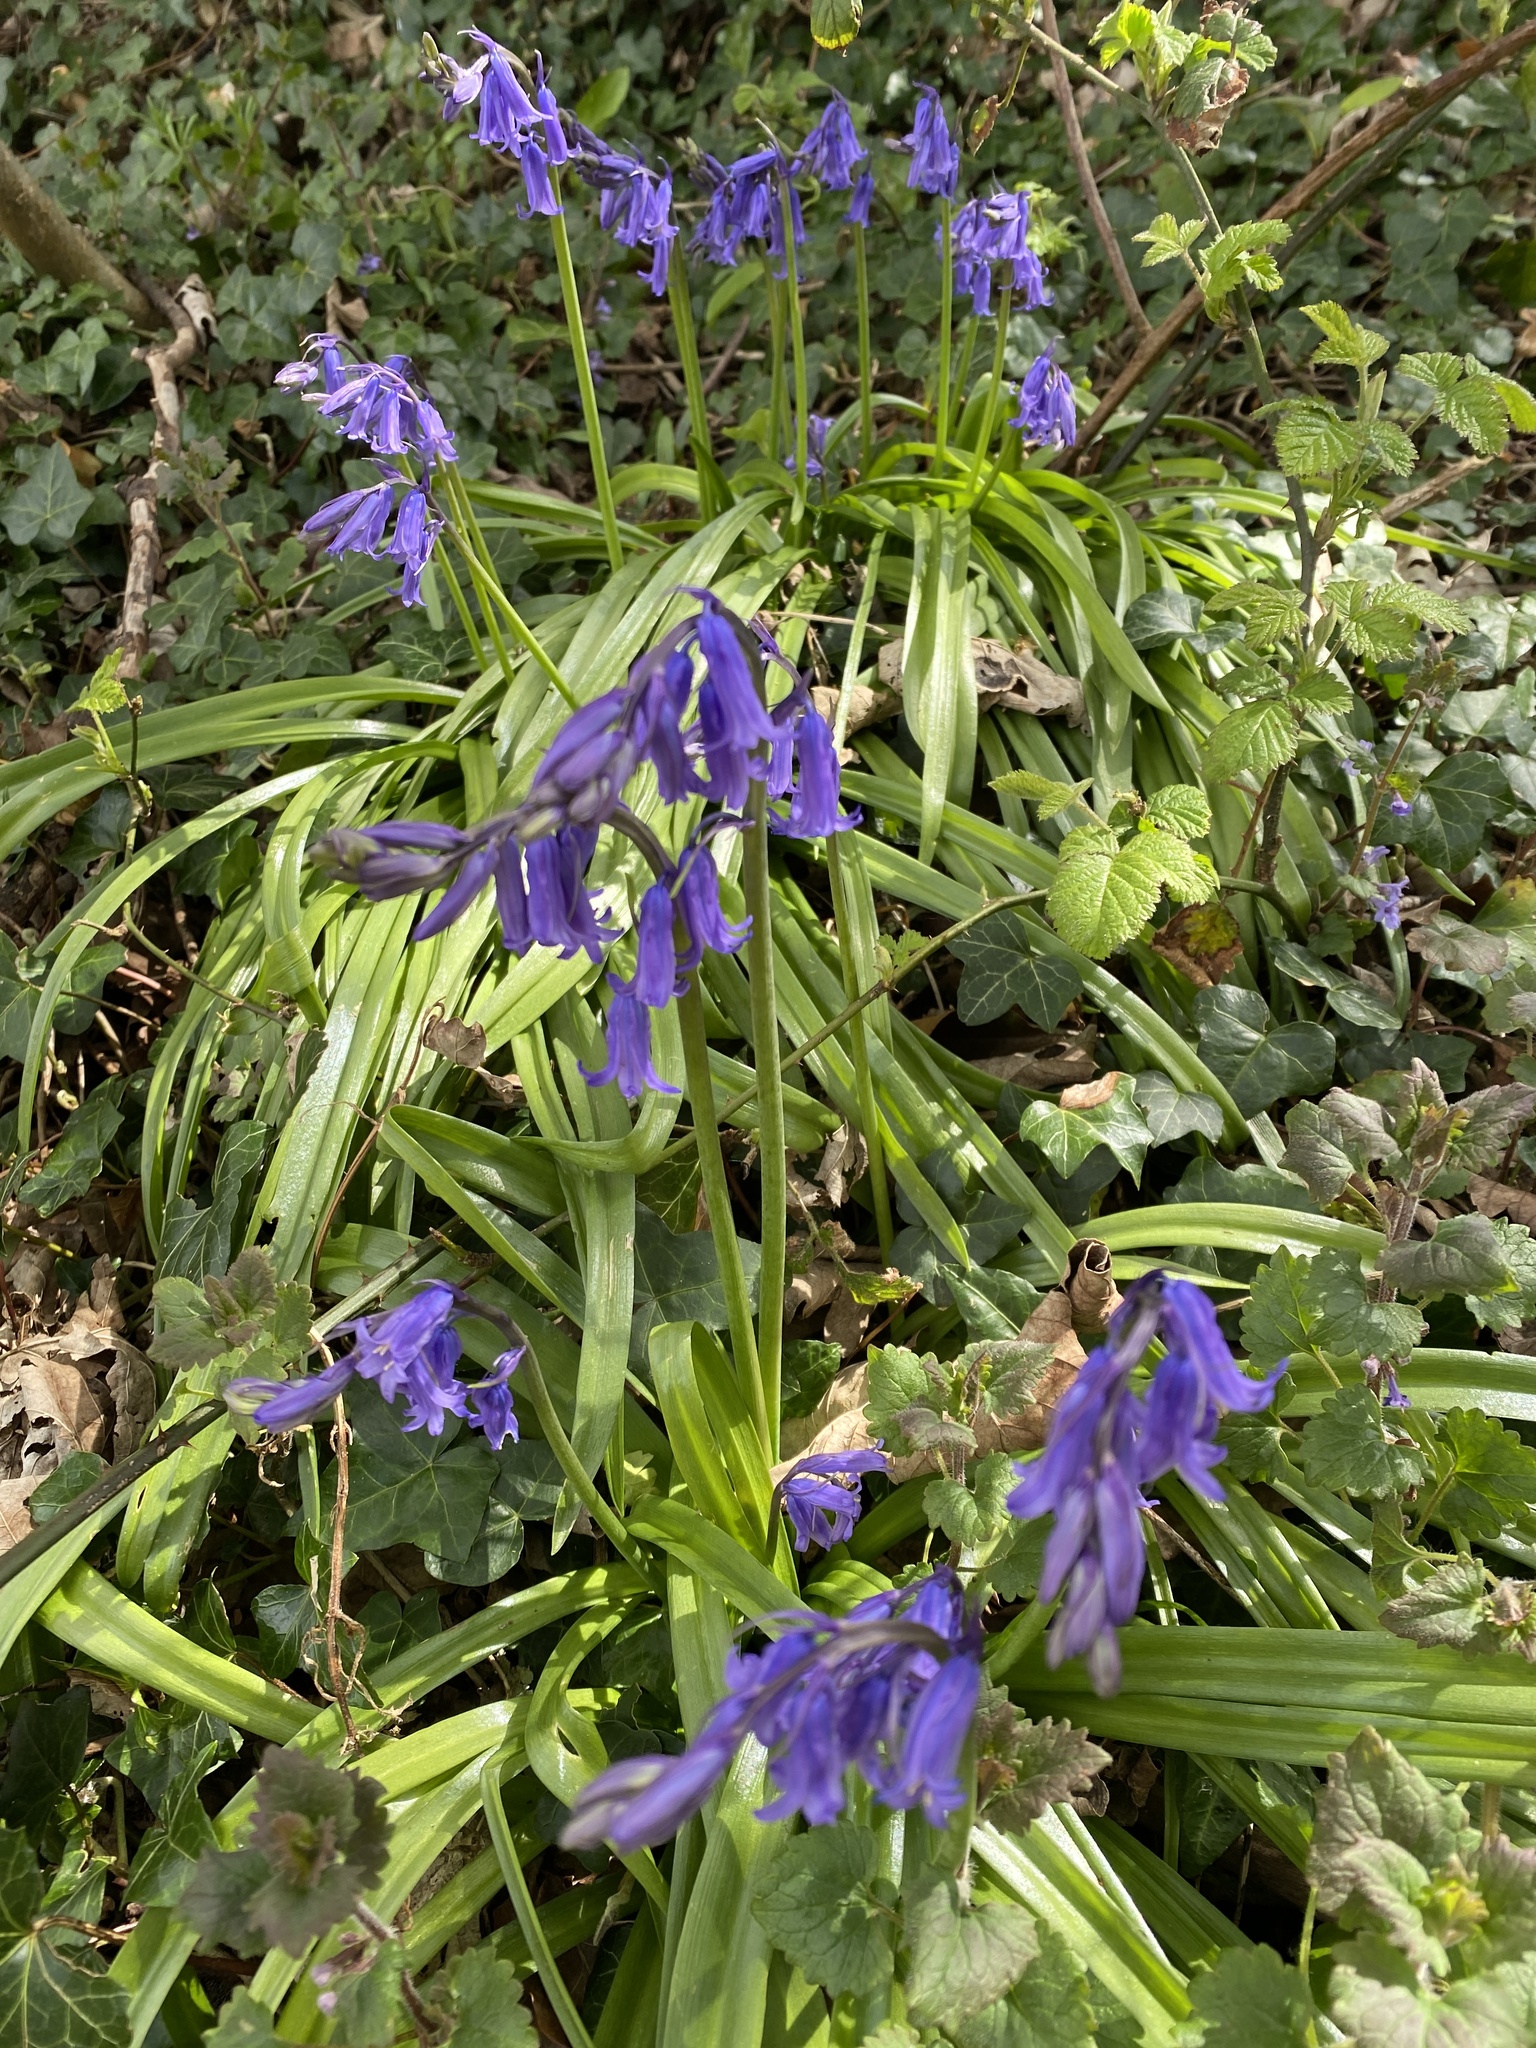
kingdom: Plantae
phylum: Tracheophyta
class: Liliopsida
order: Asparagales
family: Asparagaceae
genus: Hyacinthoides
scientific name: Hyacinthoides non-scripta
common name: Bluebell
